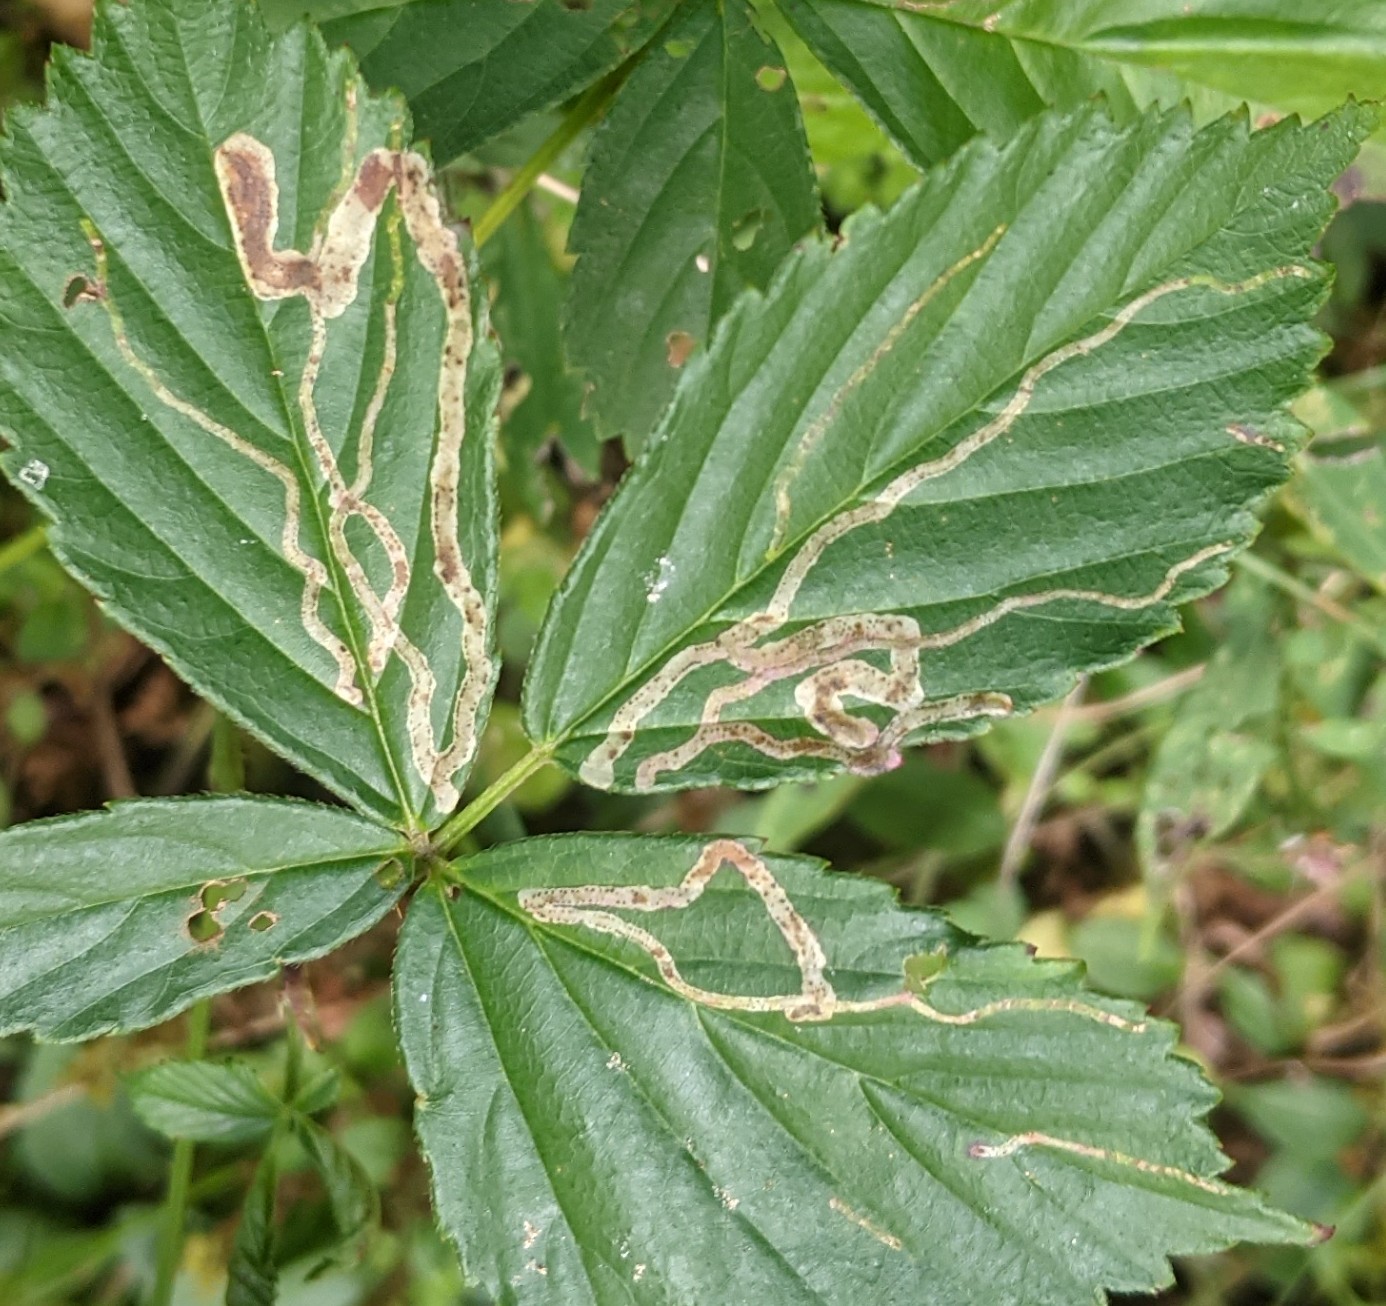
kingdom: Animalia
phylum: Arthropoda
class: Insecta
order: Diptera
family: Agromyzidae
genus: Agromyza
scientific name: Agromyza vockerothi
